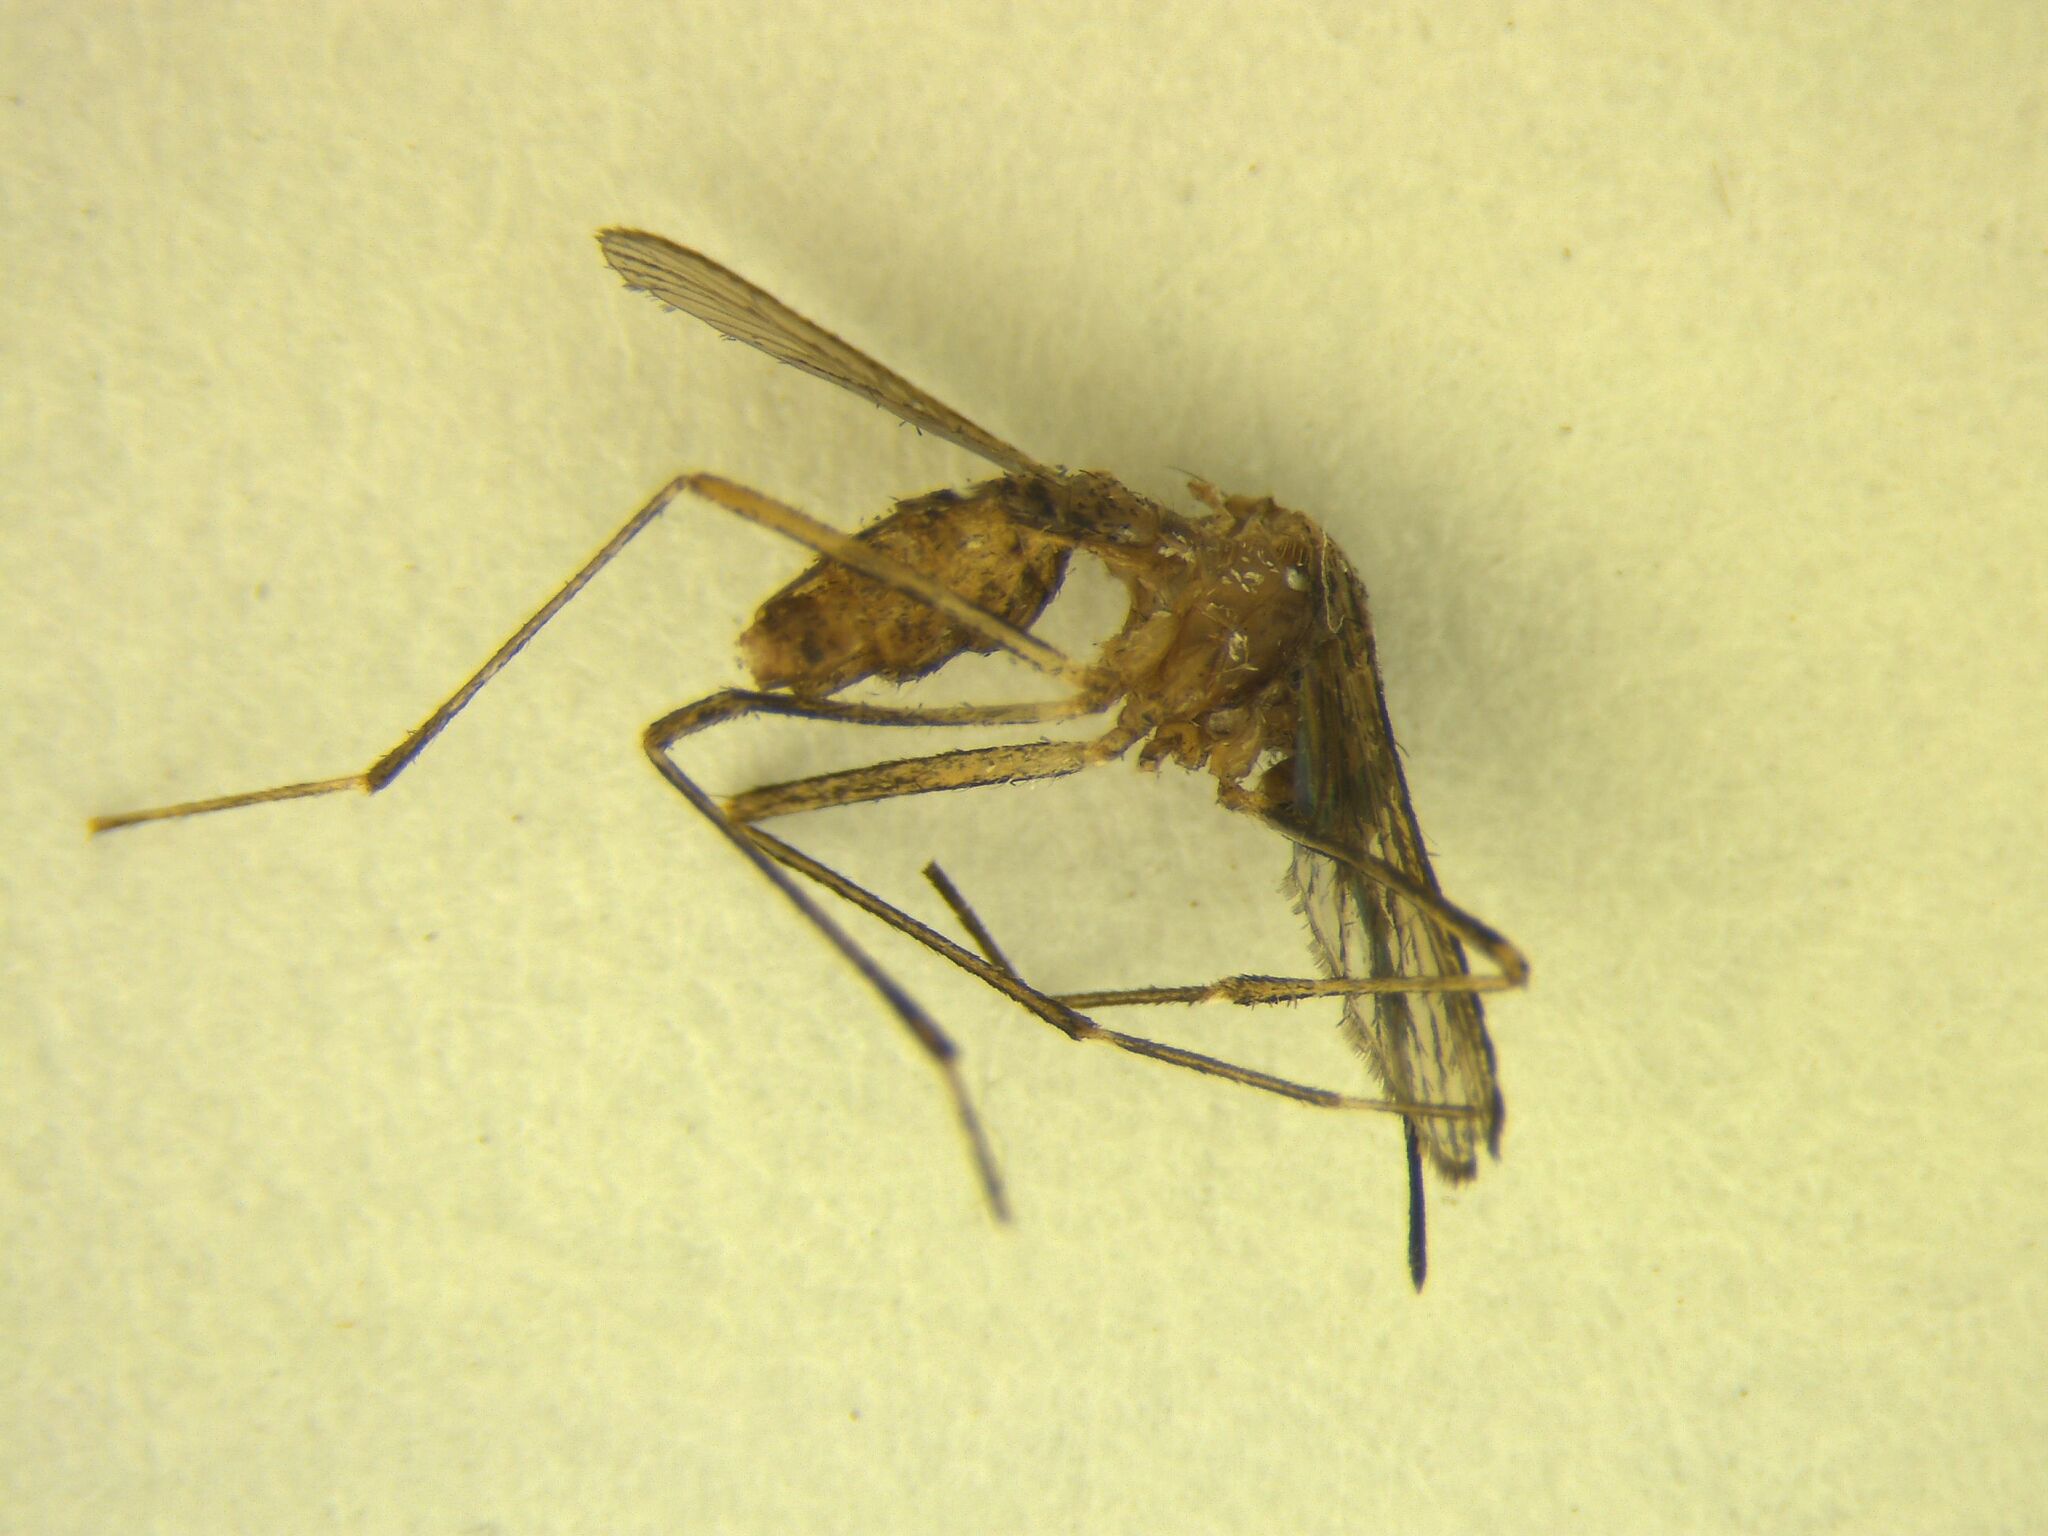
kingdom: Animalia
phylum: Arthropoda
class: Insecta
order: Diptera
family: Culicidae
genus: Aedes
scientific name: Aedes notoscriptus
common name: Australian backyard mosquito
